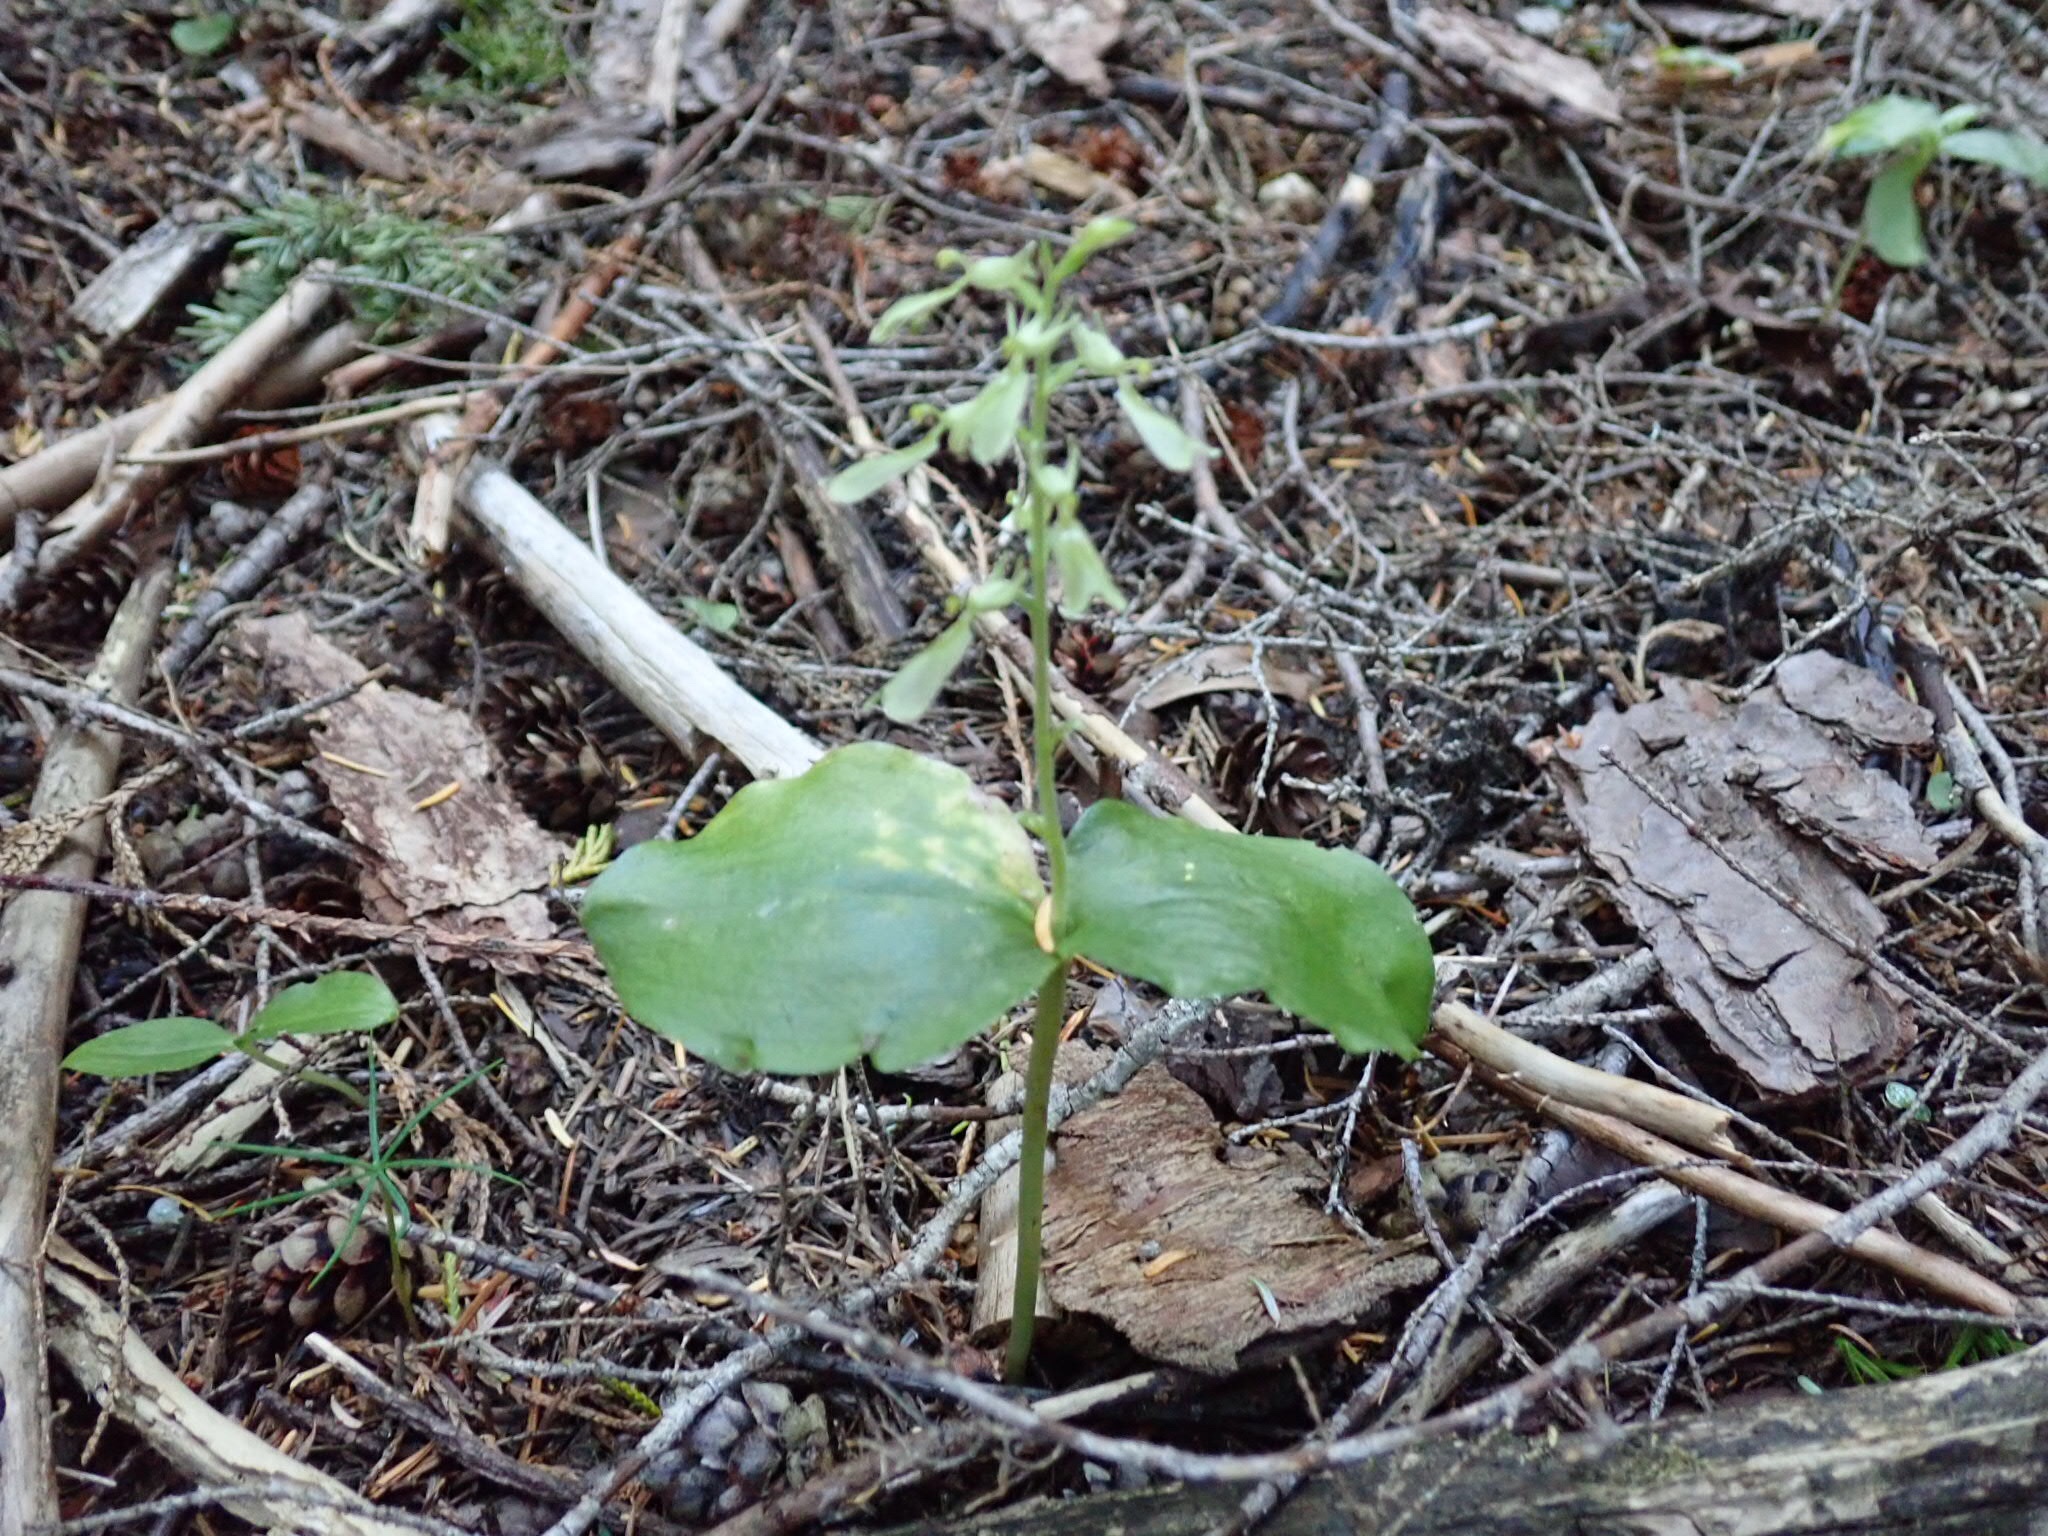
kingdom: Plantae
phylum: Tracheophyta
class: Liliopsida
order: Asparagales
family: Orchidaceae
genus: Neottia
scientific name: Neottia convallarioides
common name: Broadleaf twayblade
